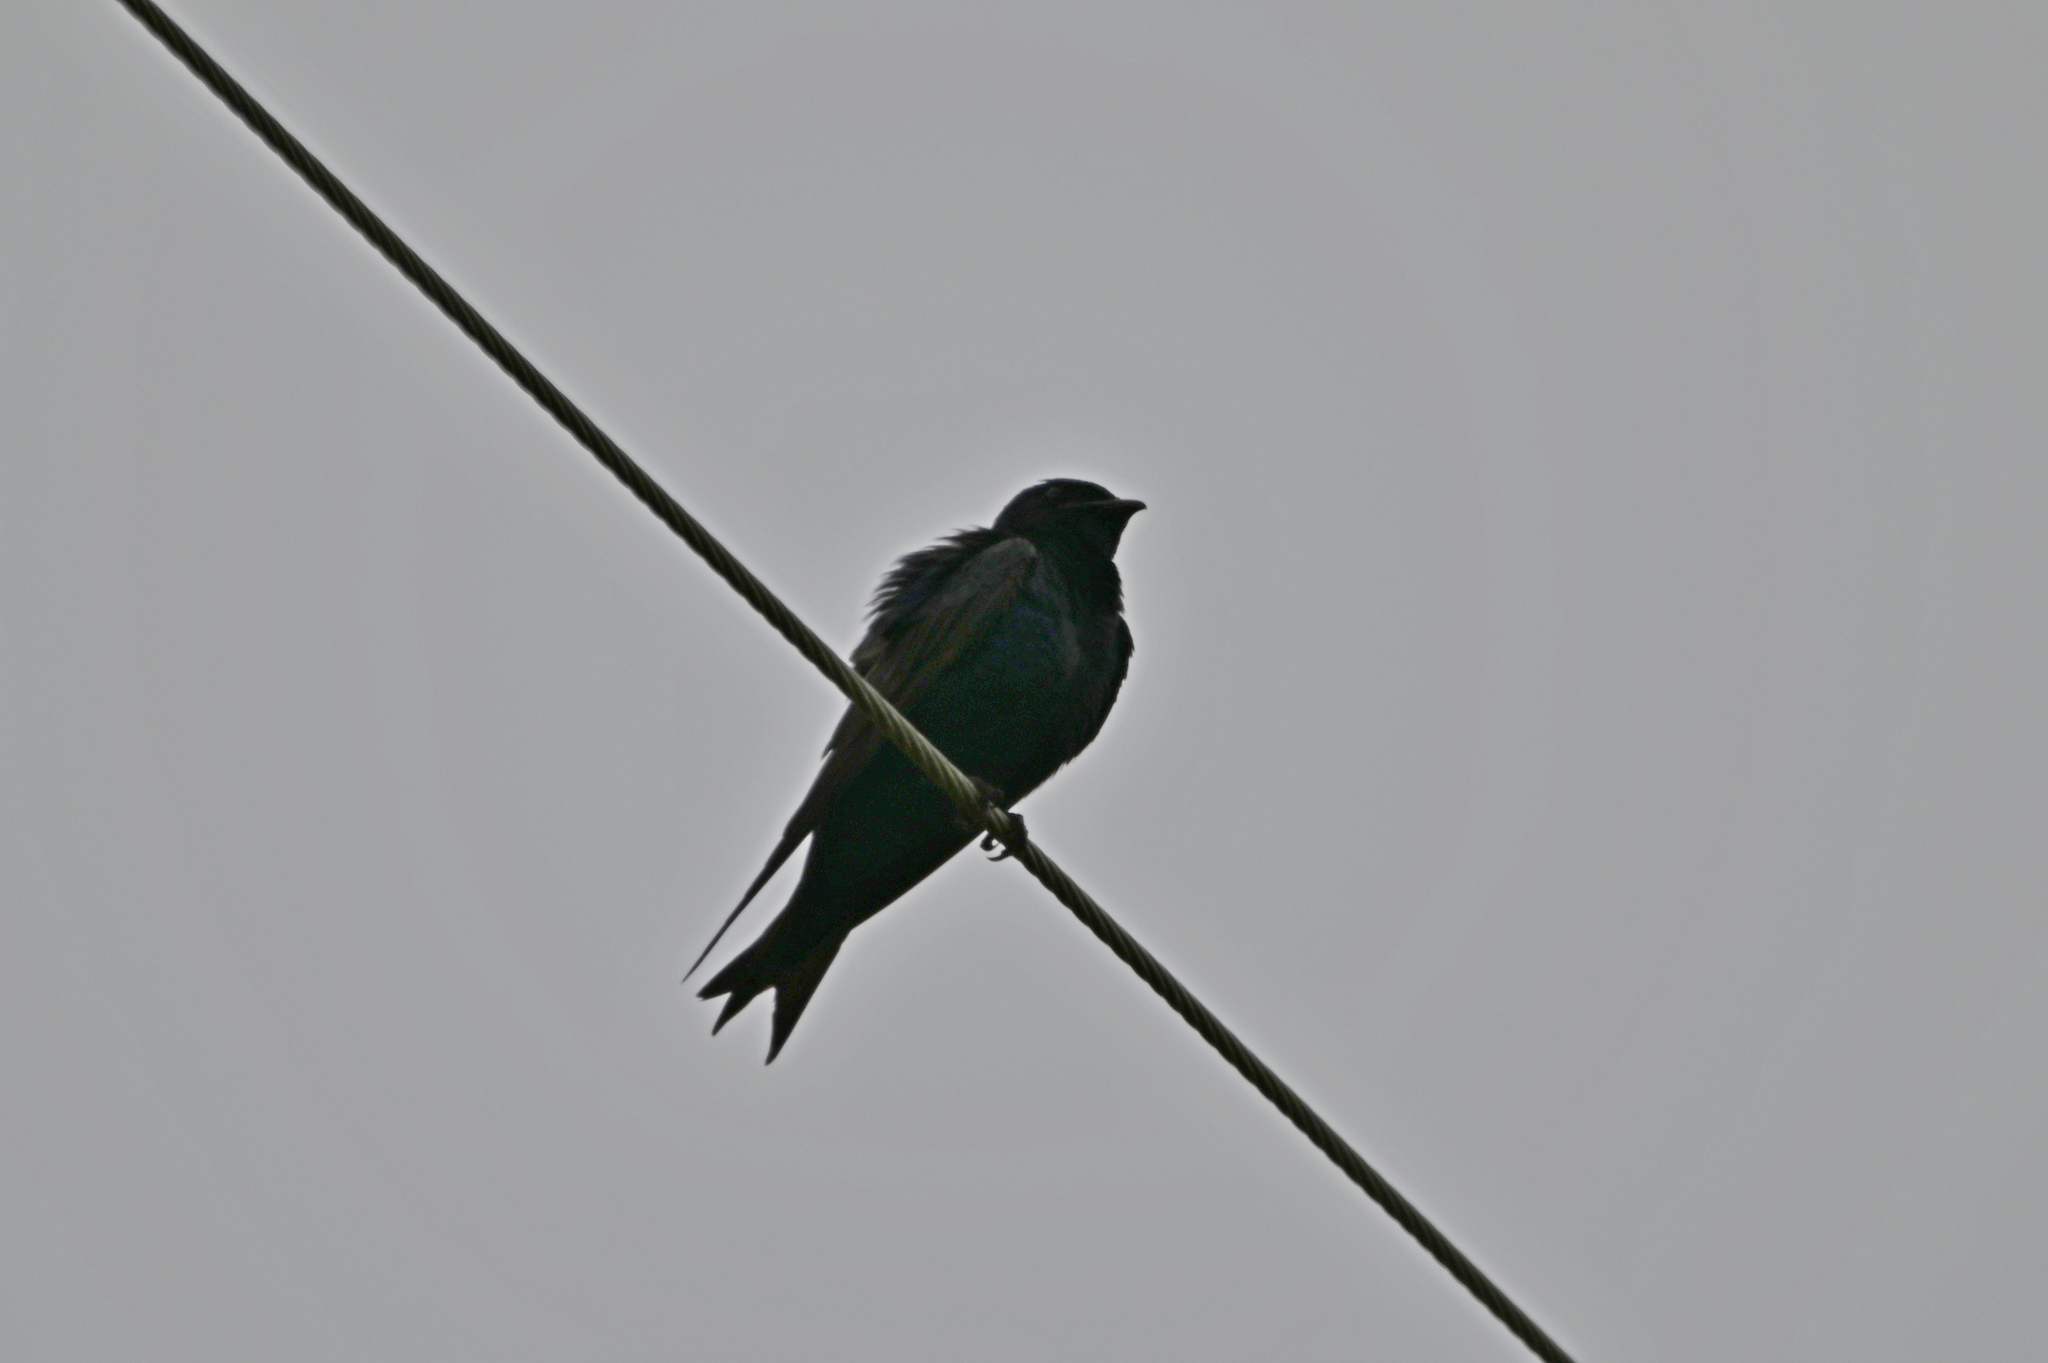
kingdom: Animalia
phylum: Chordata
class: Aves
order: Passeriformes
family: Hirundinidae
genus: Progne
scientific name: Progne subis
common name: Purple martin
